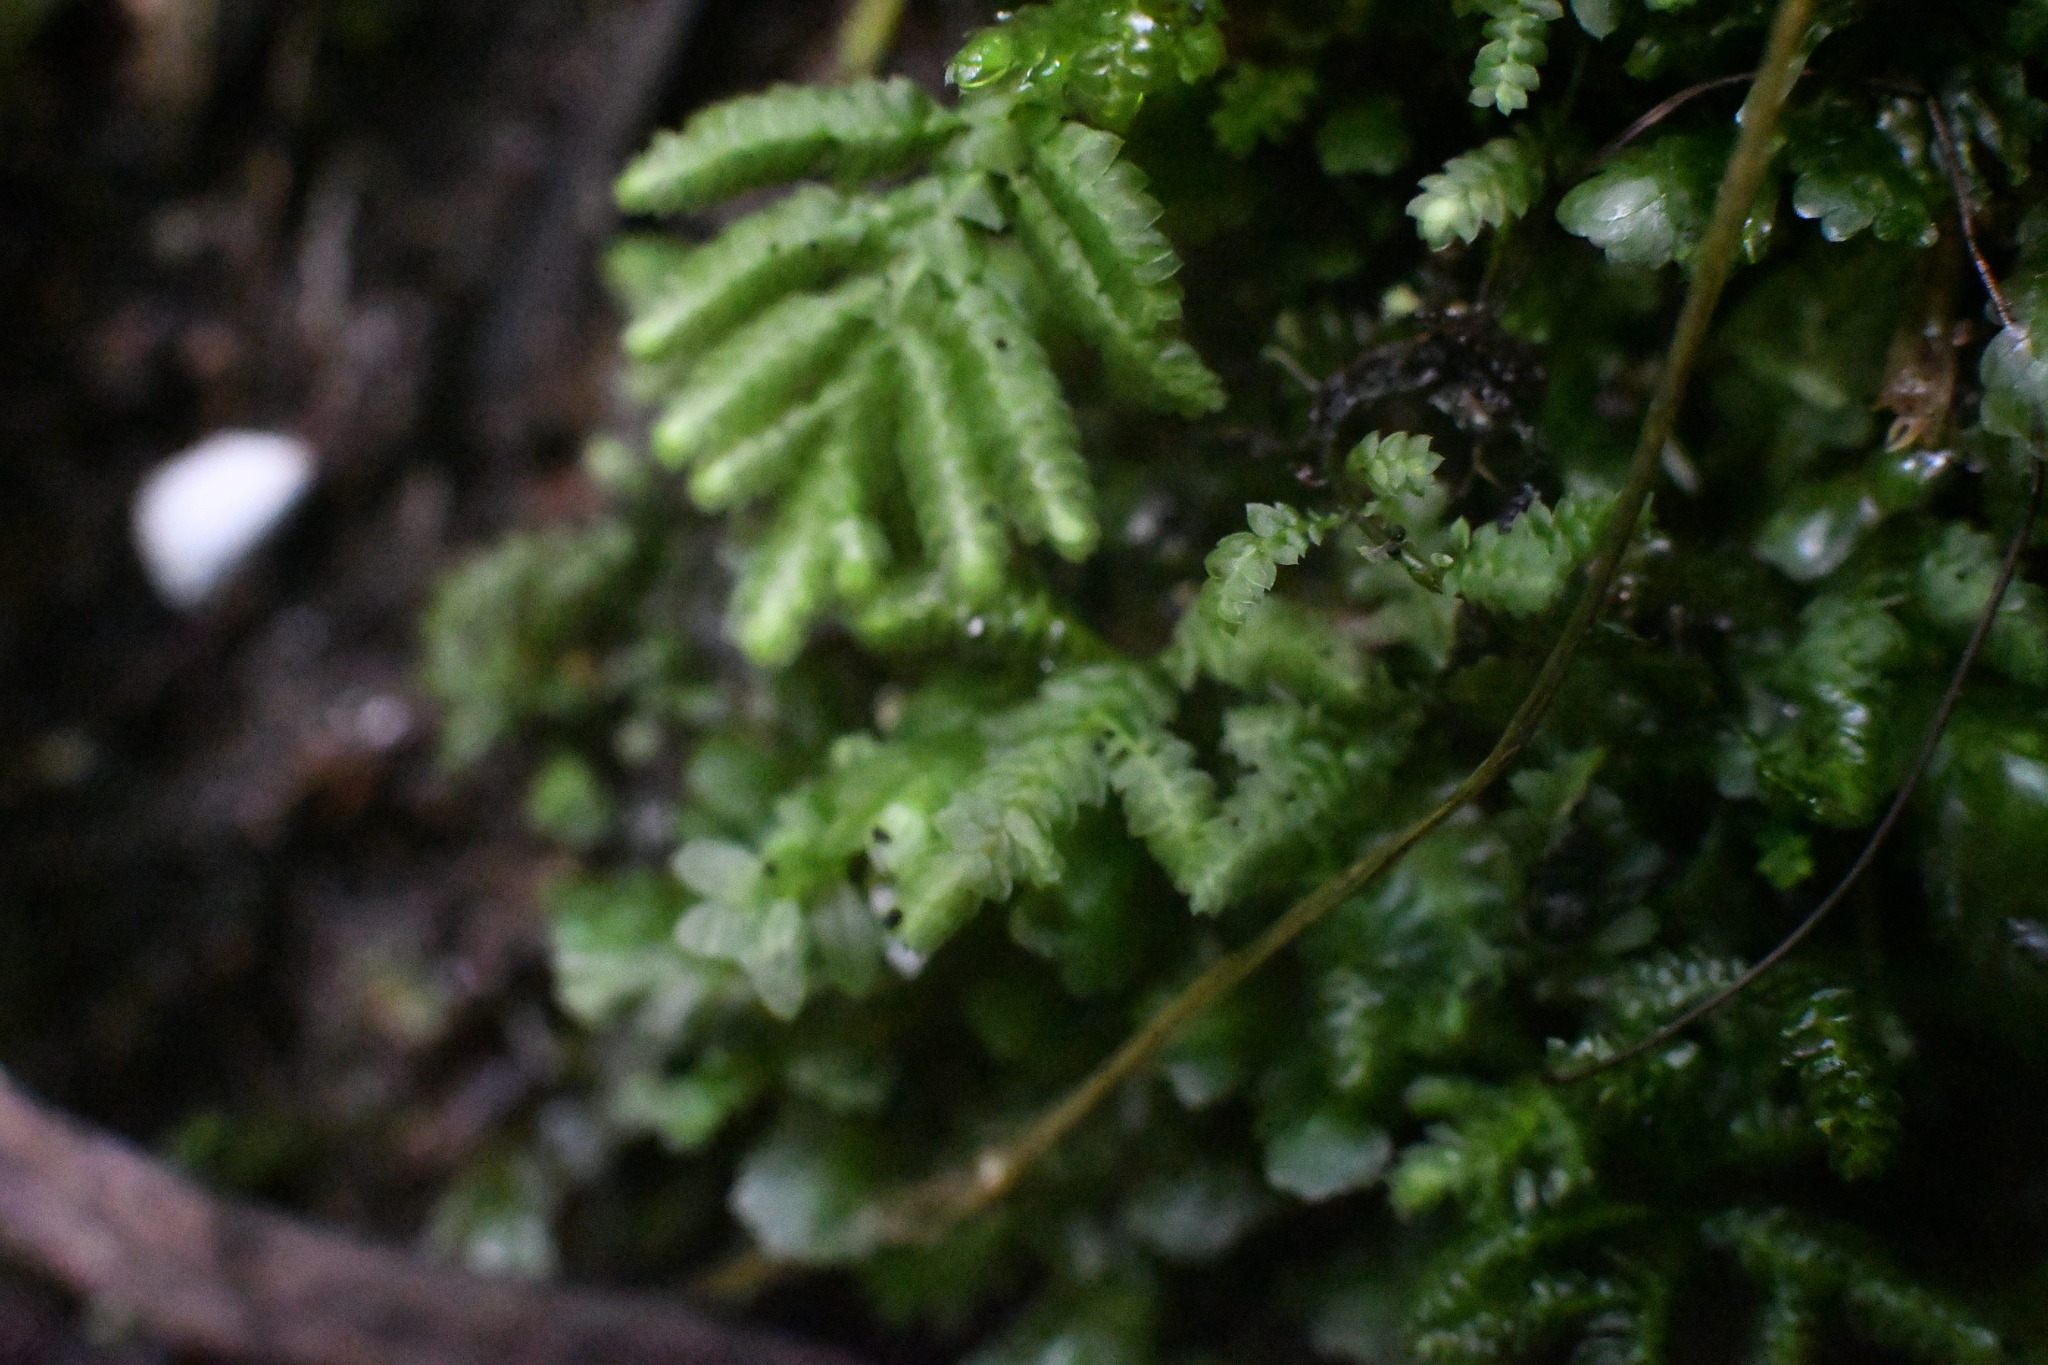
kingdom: Plantae
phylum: Bryophyta
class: Bryopsida
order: Hypopterygiales
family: Hypopterygiaceae
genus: Lopidium
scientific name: Lopidium concinnum
